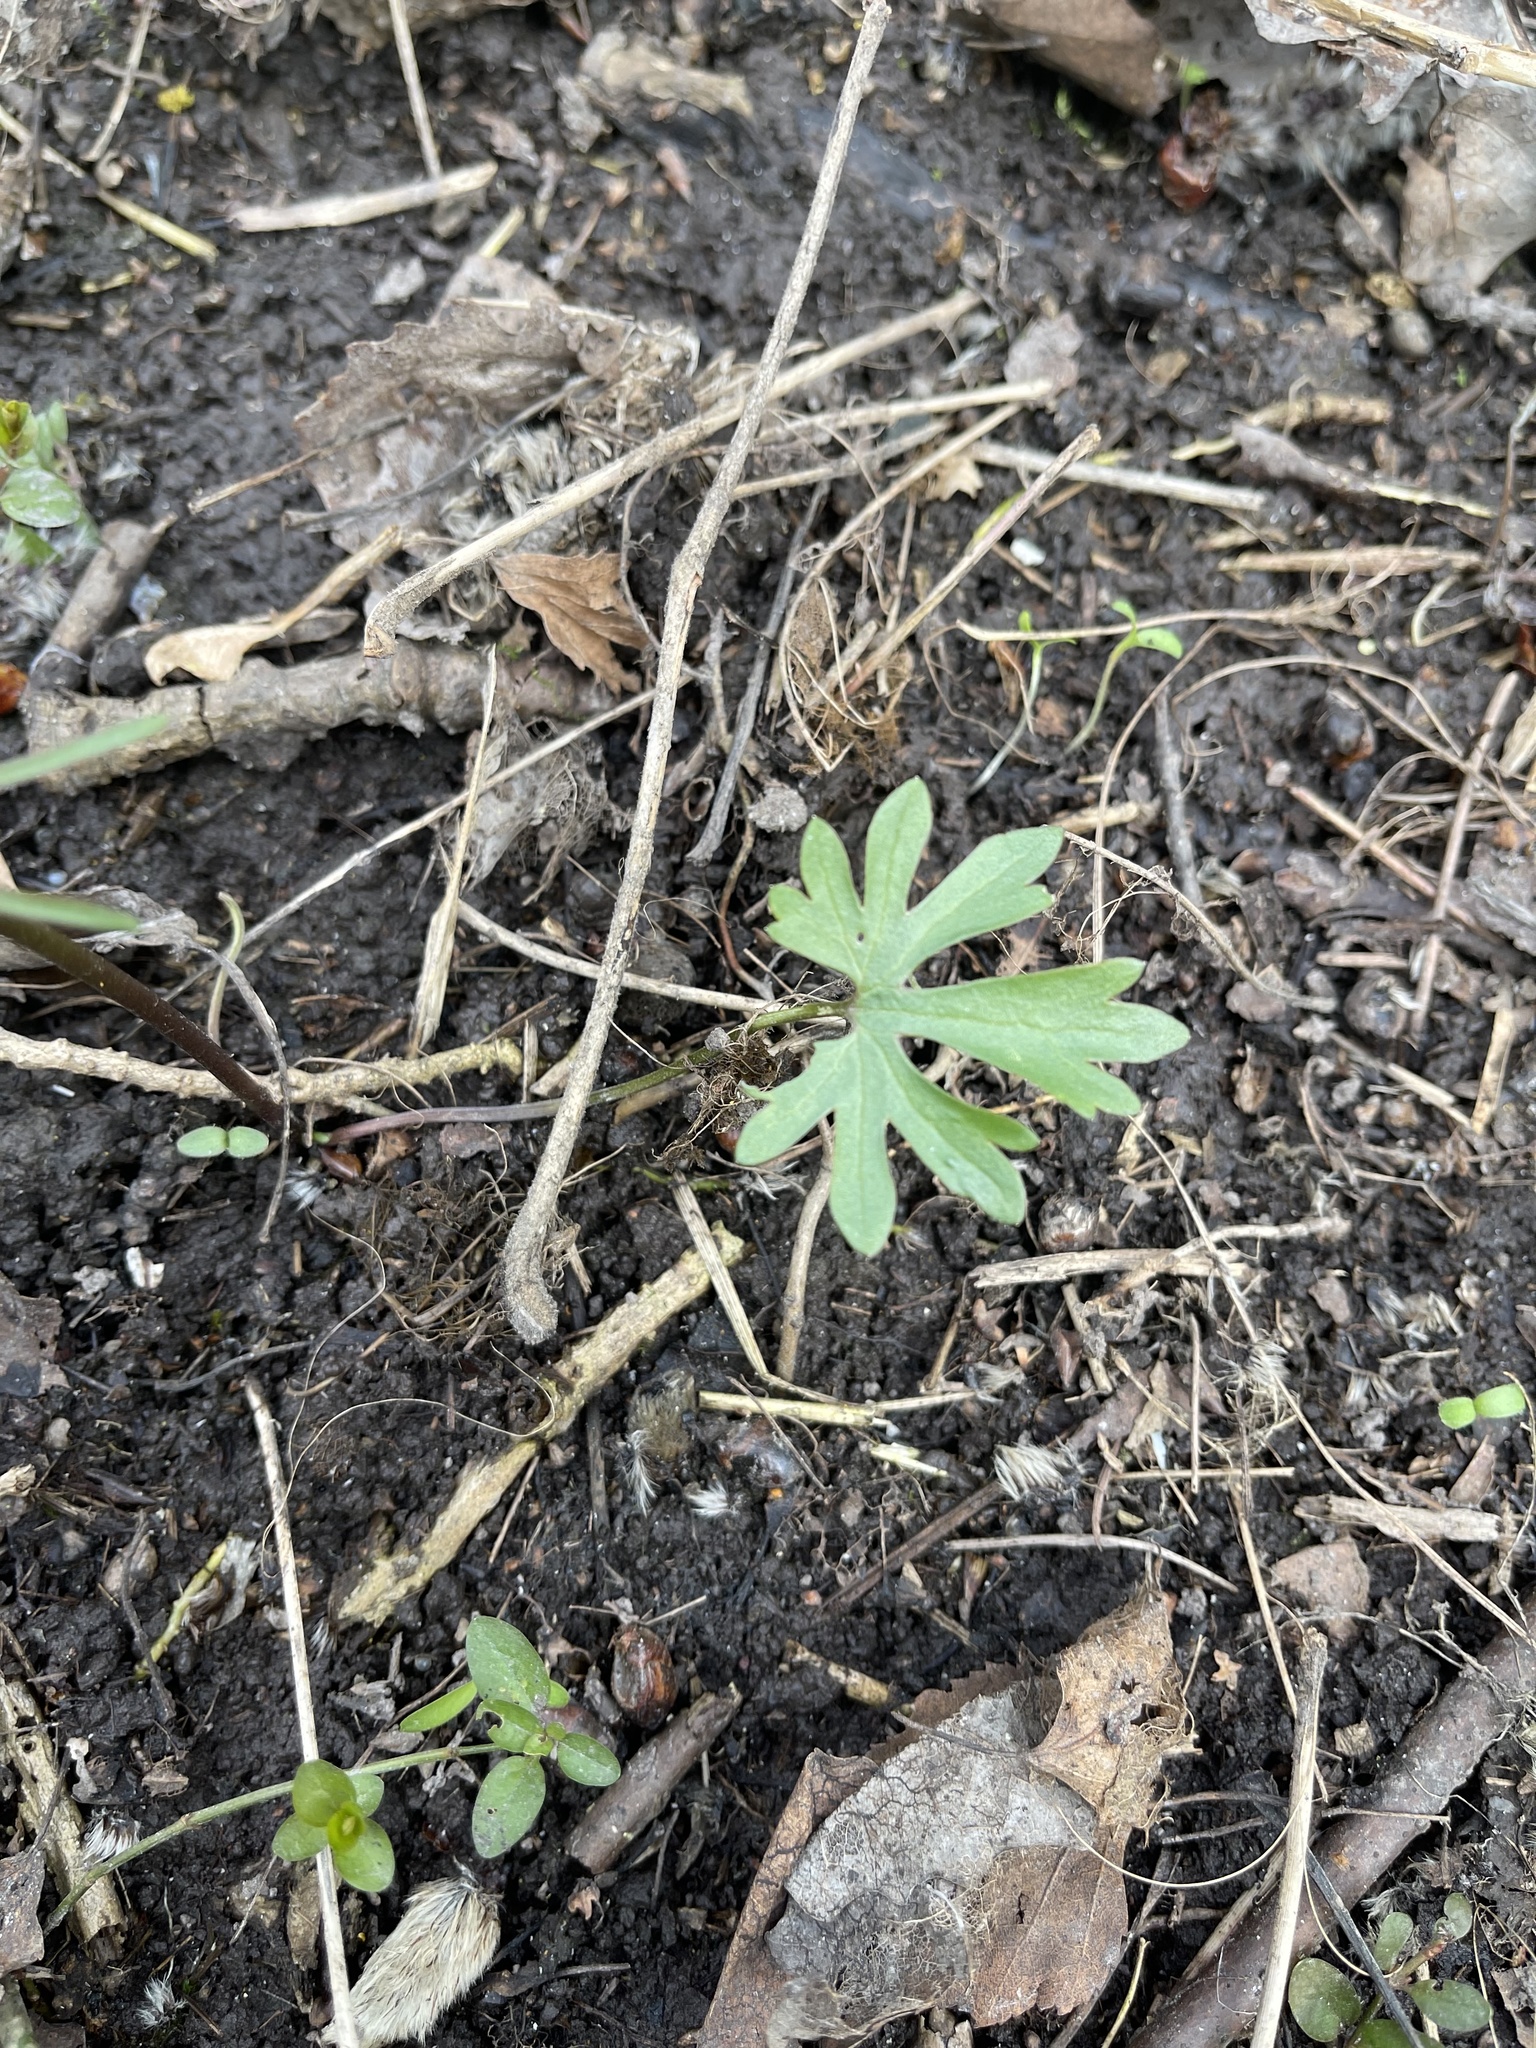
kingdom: Plantae
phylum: Tracheophyta
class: Magnoliopsida
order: Ranunculales
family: Ranunculaceae
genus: Ranunculus
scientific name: Ranunculus auricomus
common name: Goldilocks buttercup
